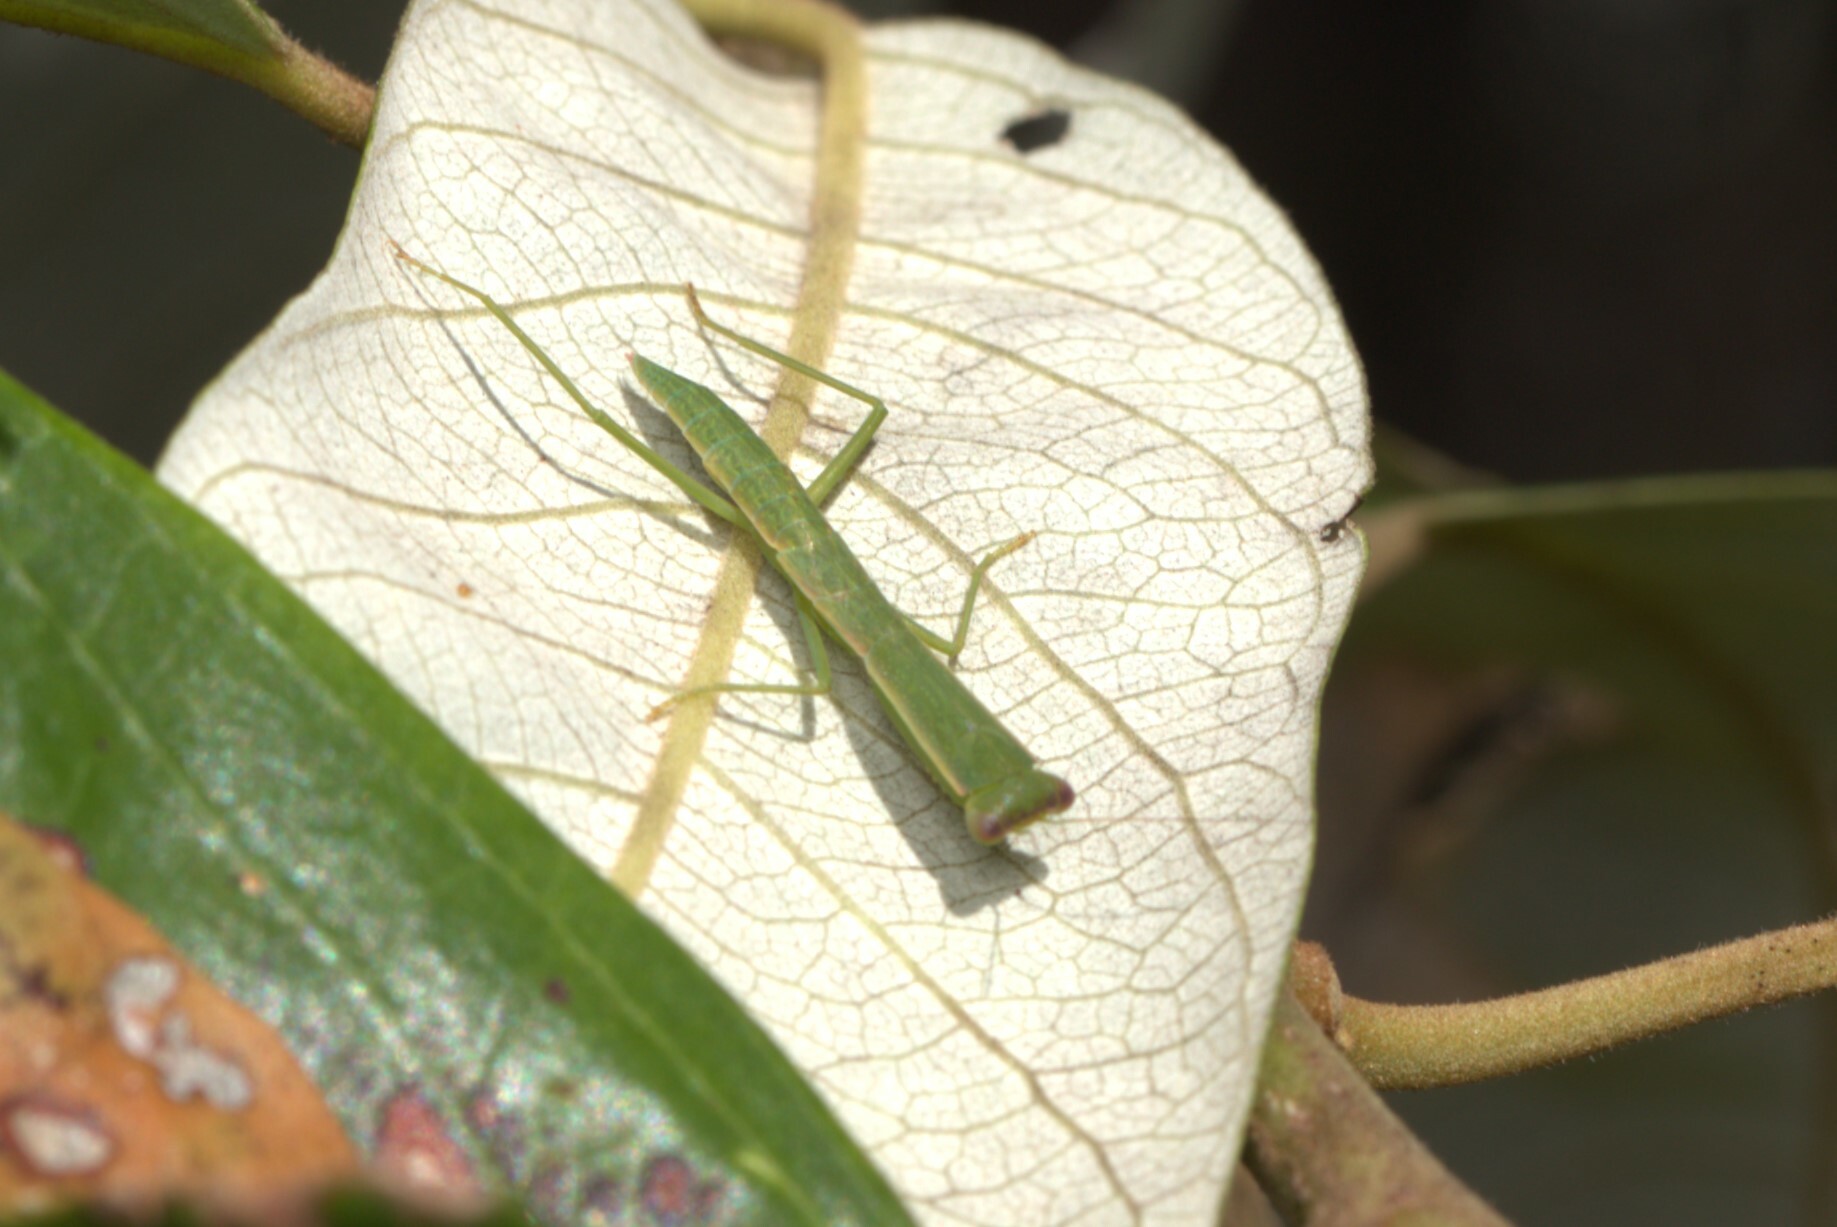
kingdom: Animalia
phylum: Arthropoda
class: Insecta
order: Mantodea
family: Mantidae
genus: Orthodera
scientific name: Orthodera ministralis
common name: Mantis
